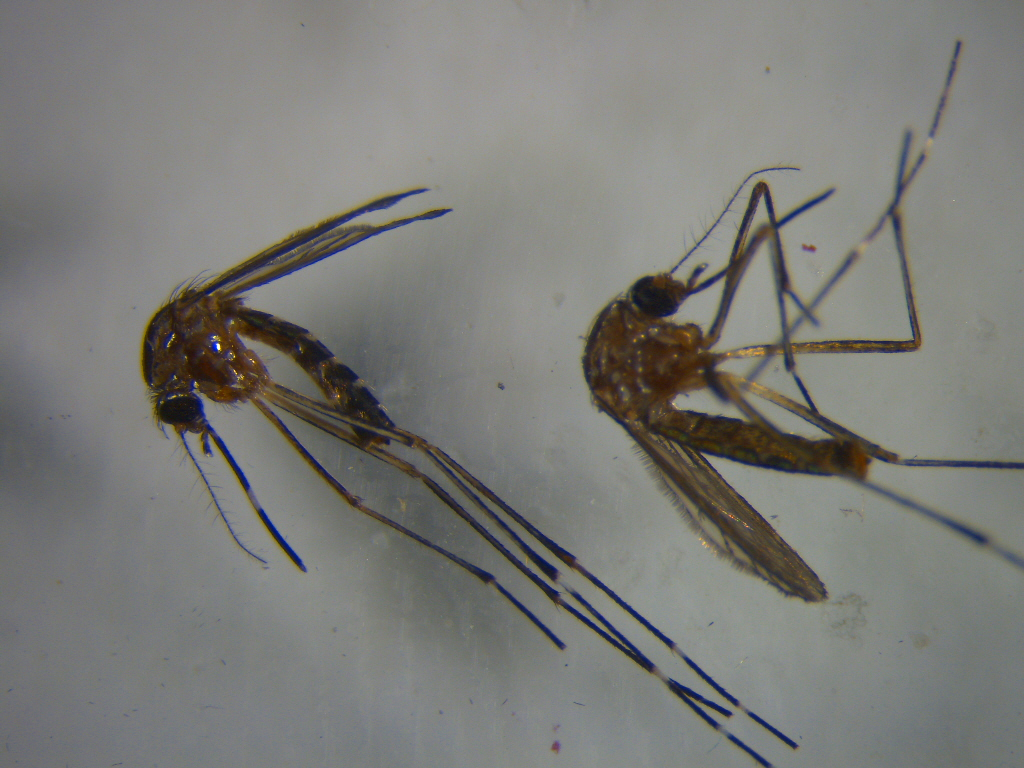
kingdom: Animalia
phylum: Arthropoda
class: Insecta
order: Diptera
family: Culicidae
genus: Aedes
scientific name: Aedes notoscriptus
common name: Australian backyard mosquito
